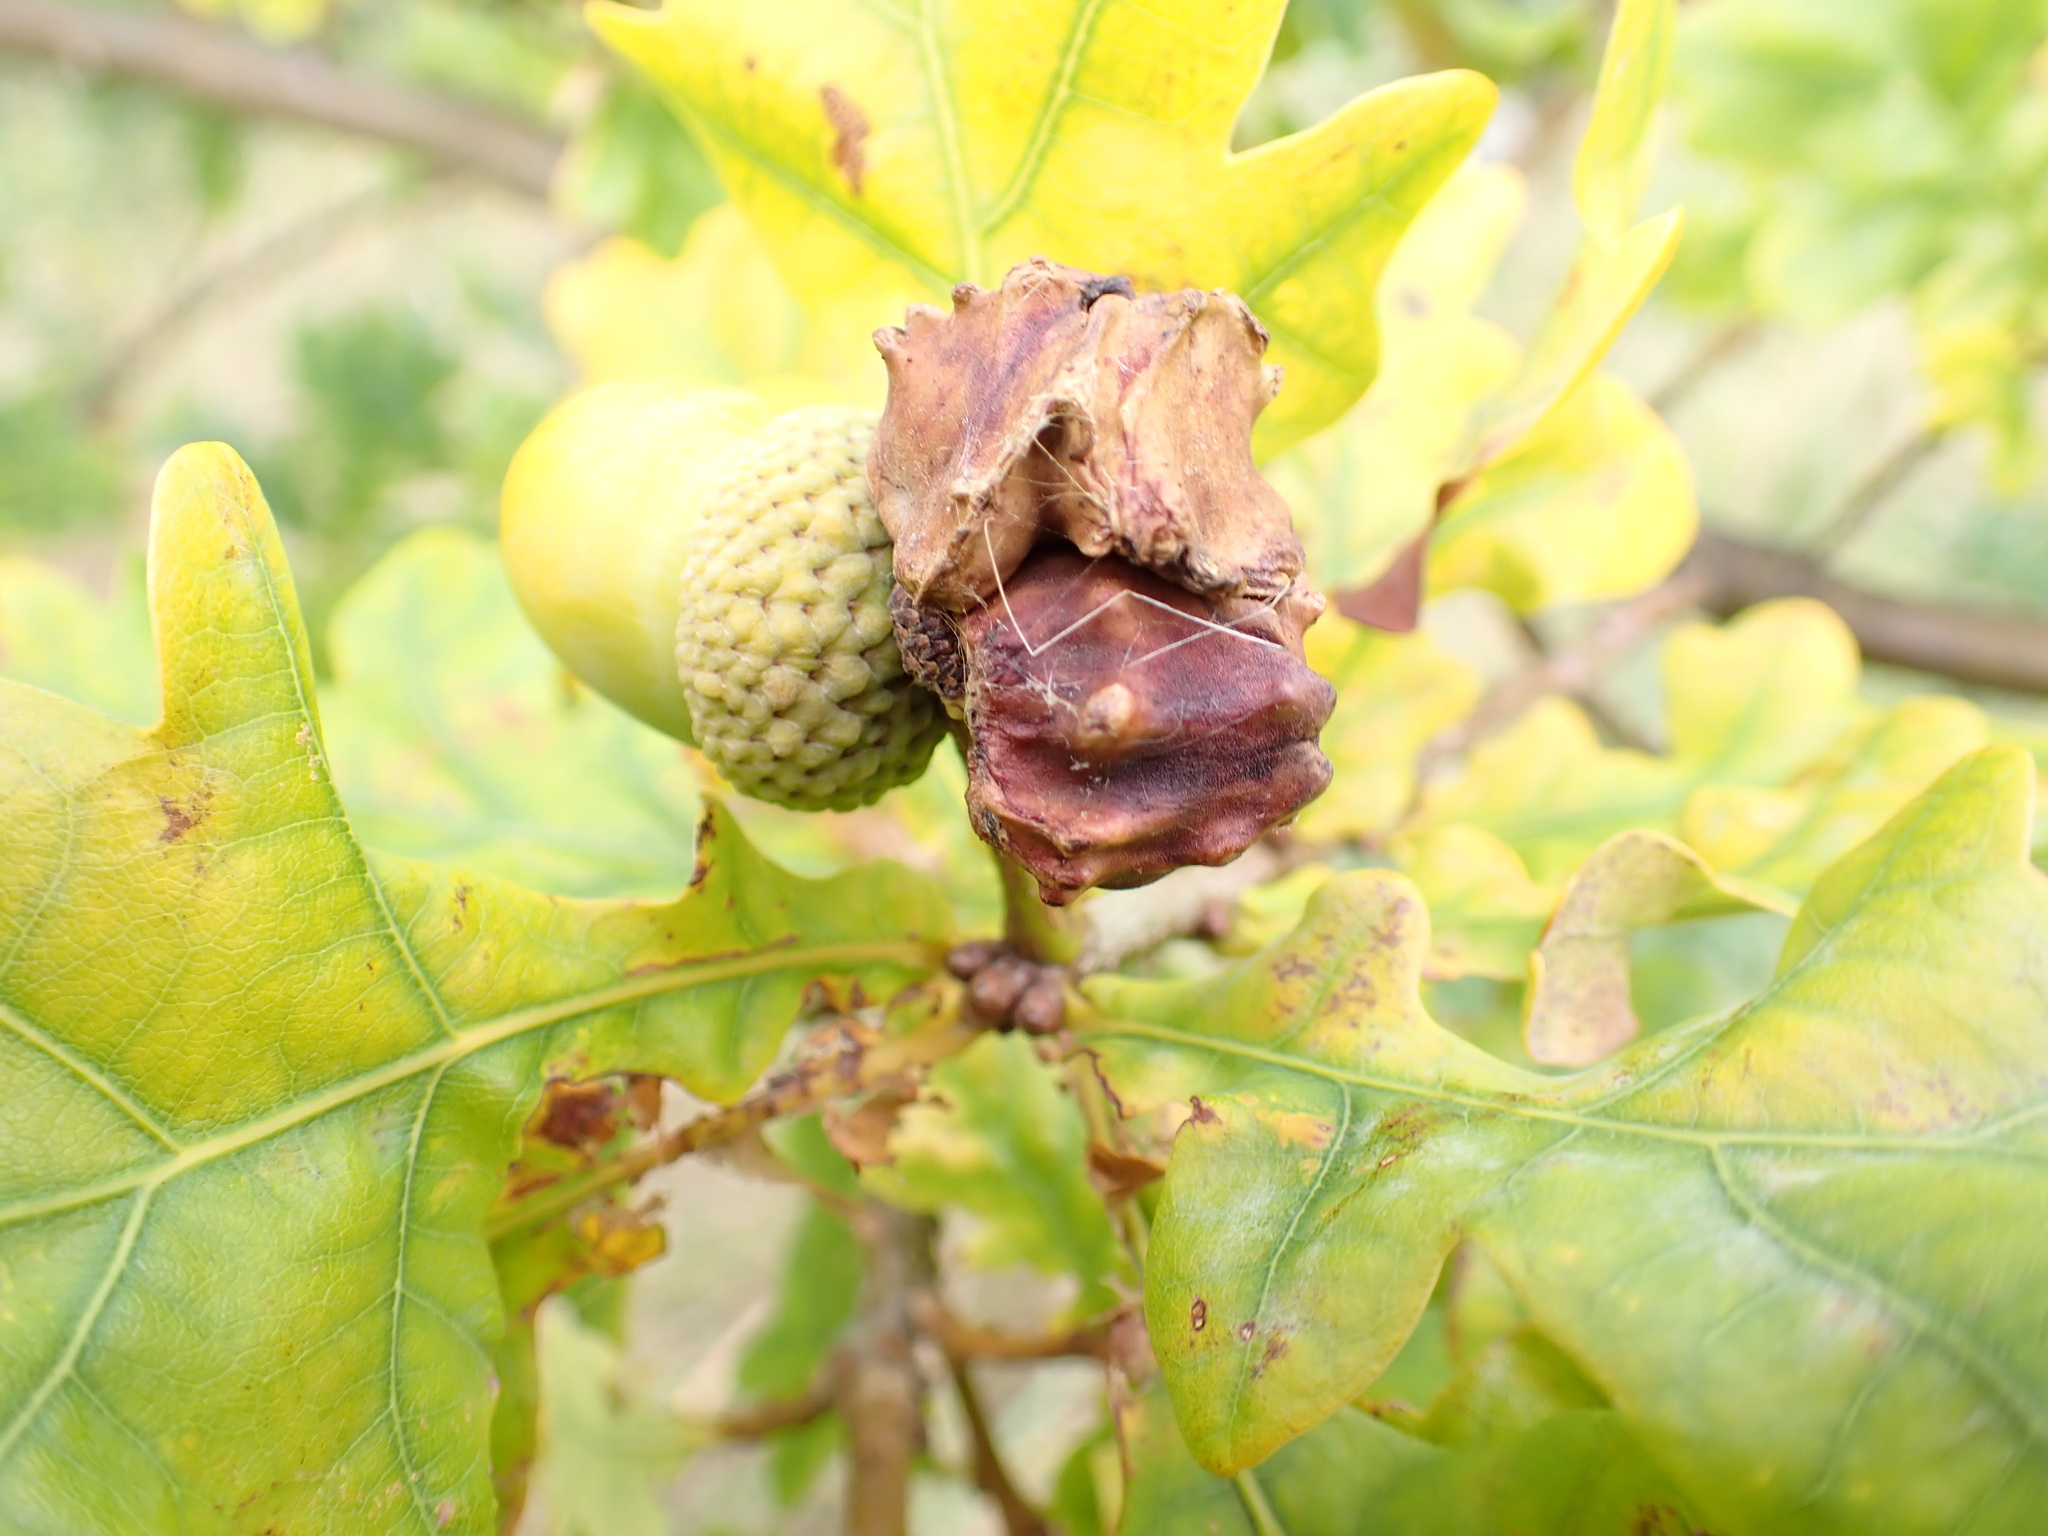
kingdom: Animalia
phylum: Arthropoda
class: Insecta
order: Hymenoptera
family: Cynipidae
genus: Andricus
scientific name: Andricus quercuscalicis
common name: Knopper gall
